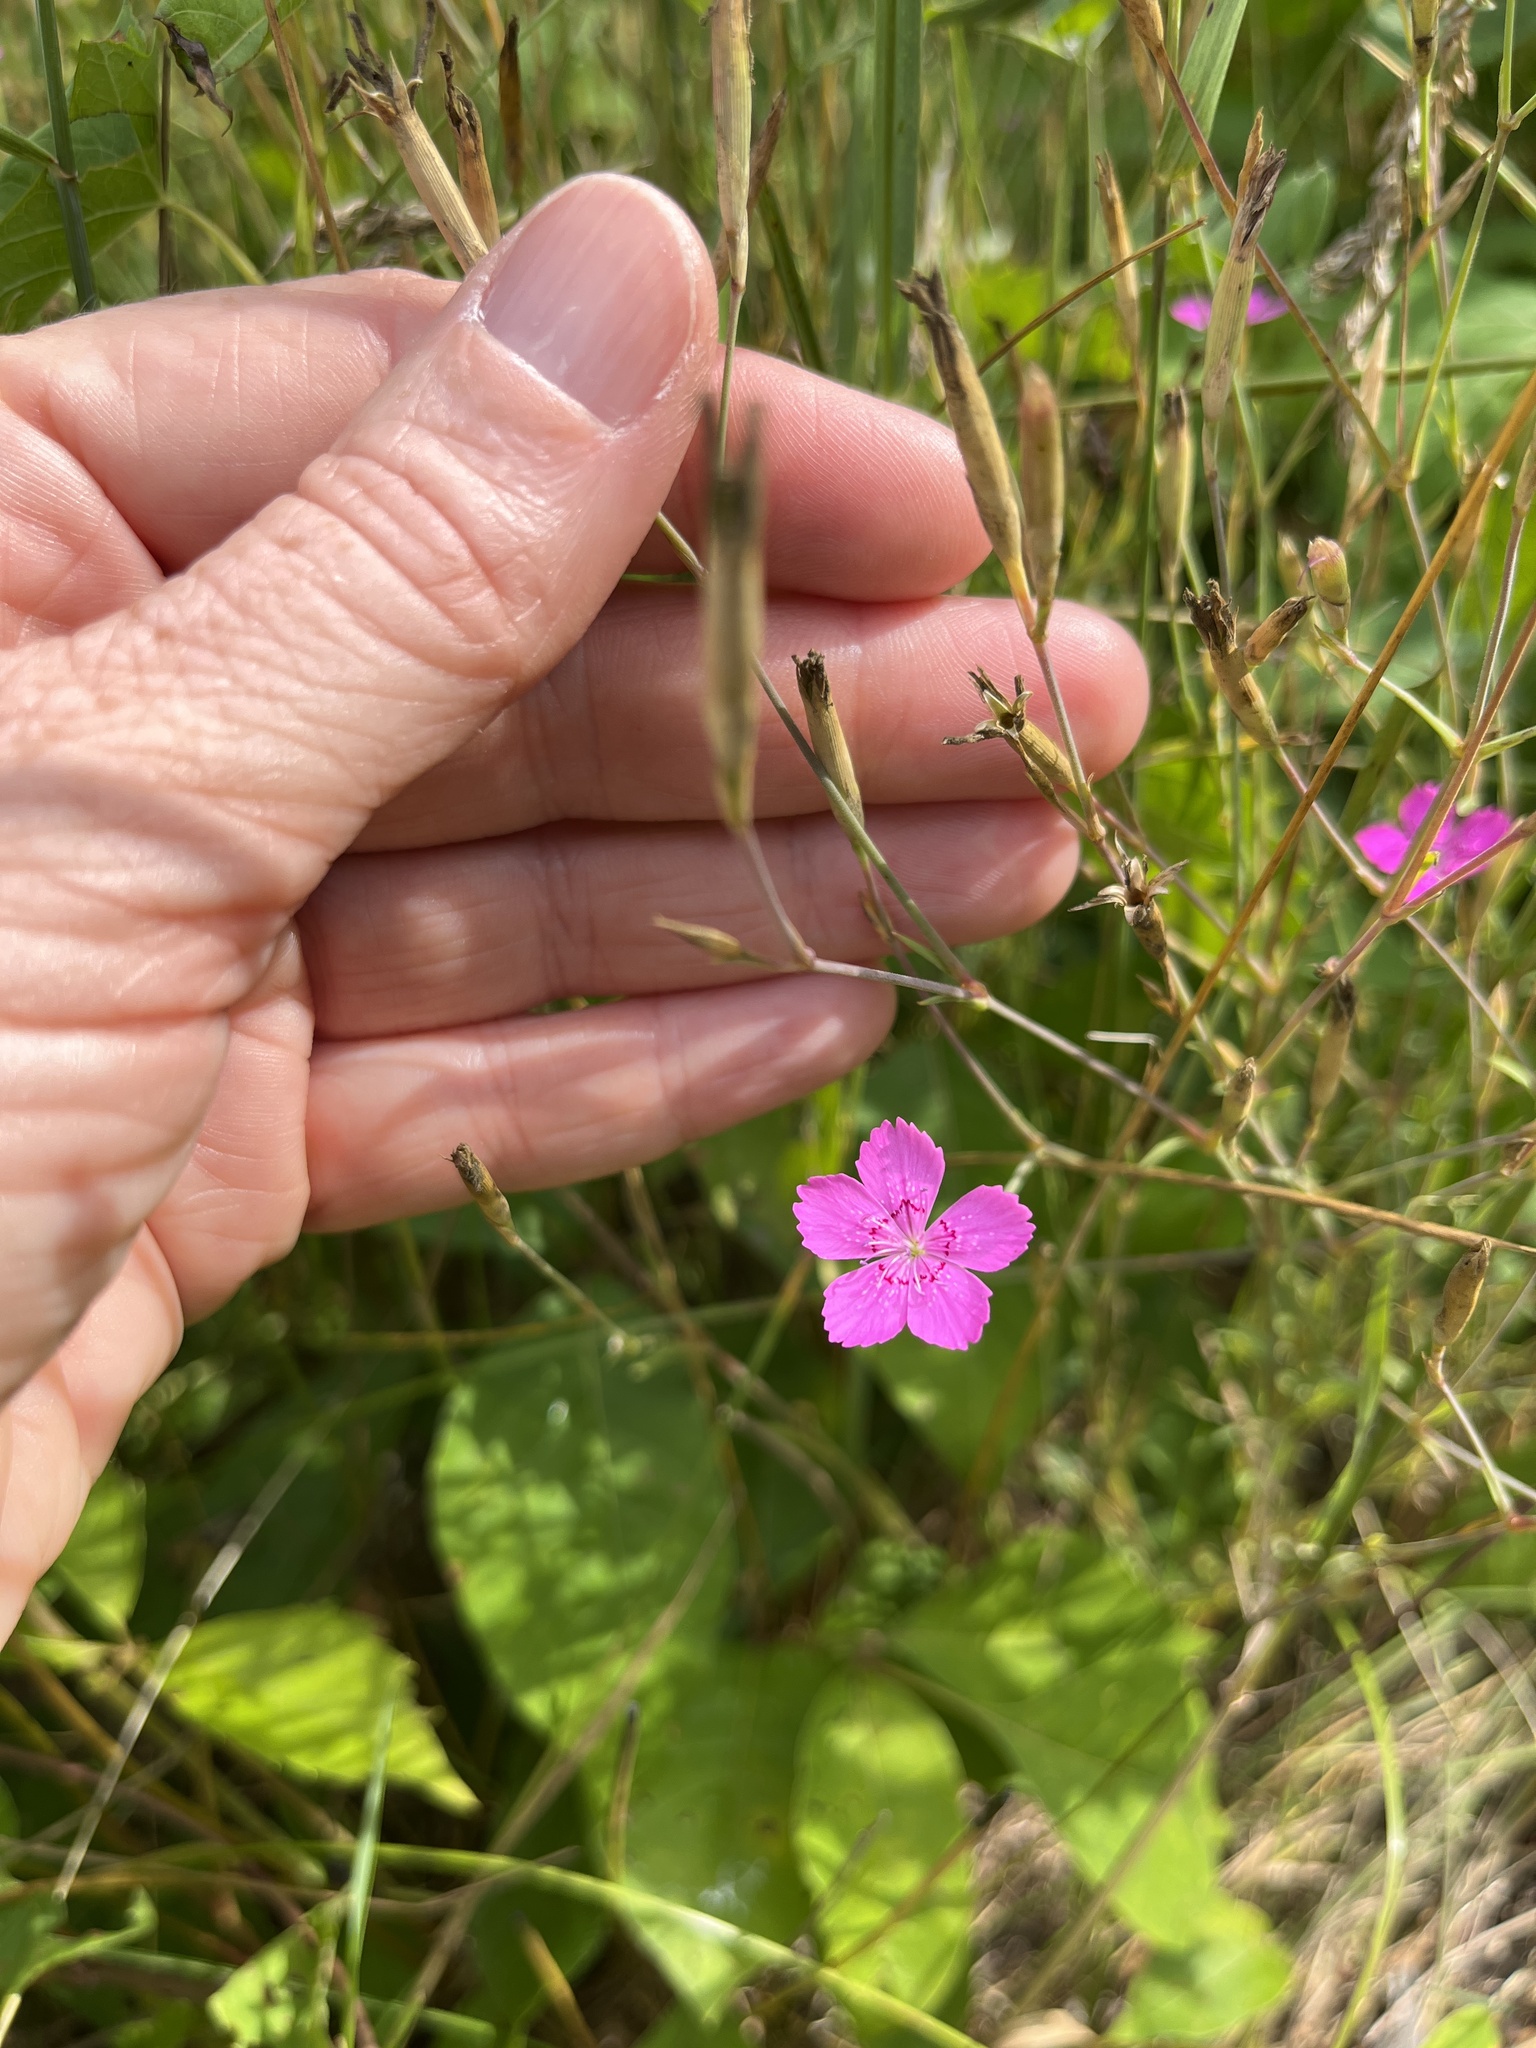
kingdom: Plantae
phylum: Tracheophyta
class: Magnoliopsida
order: Caryophyllales
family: Caryophyllaceae
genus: Dianthus
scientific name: Dianthus deltoides
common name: Maiden pink
